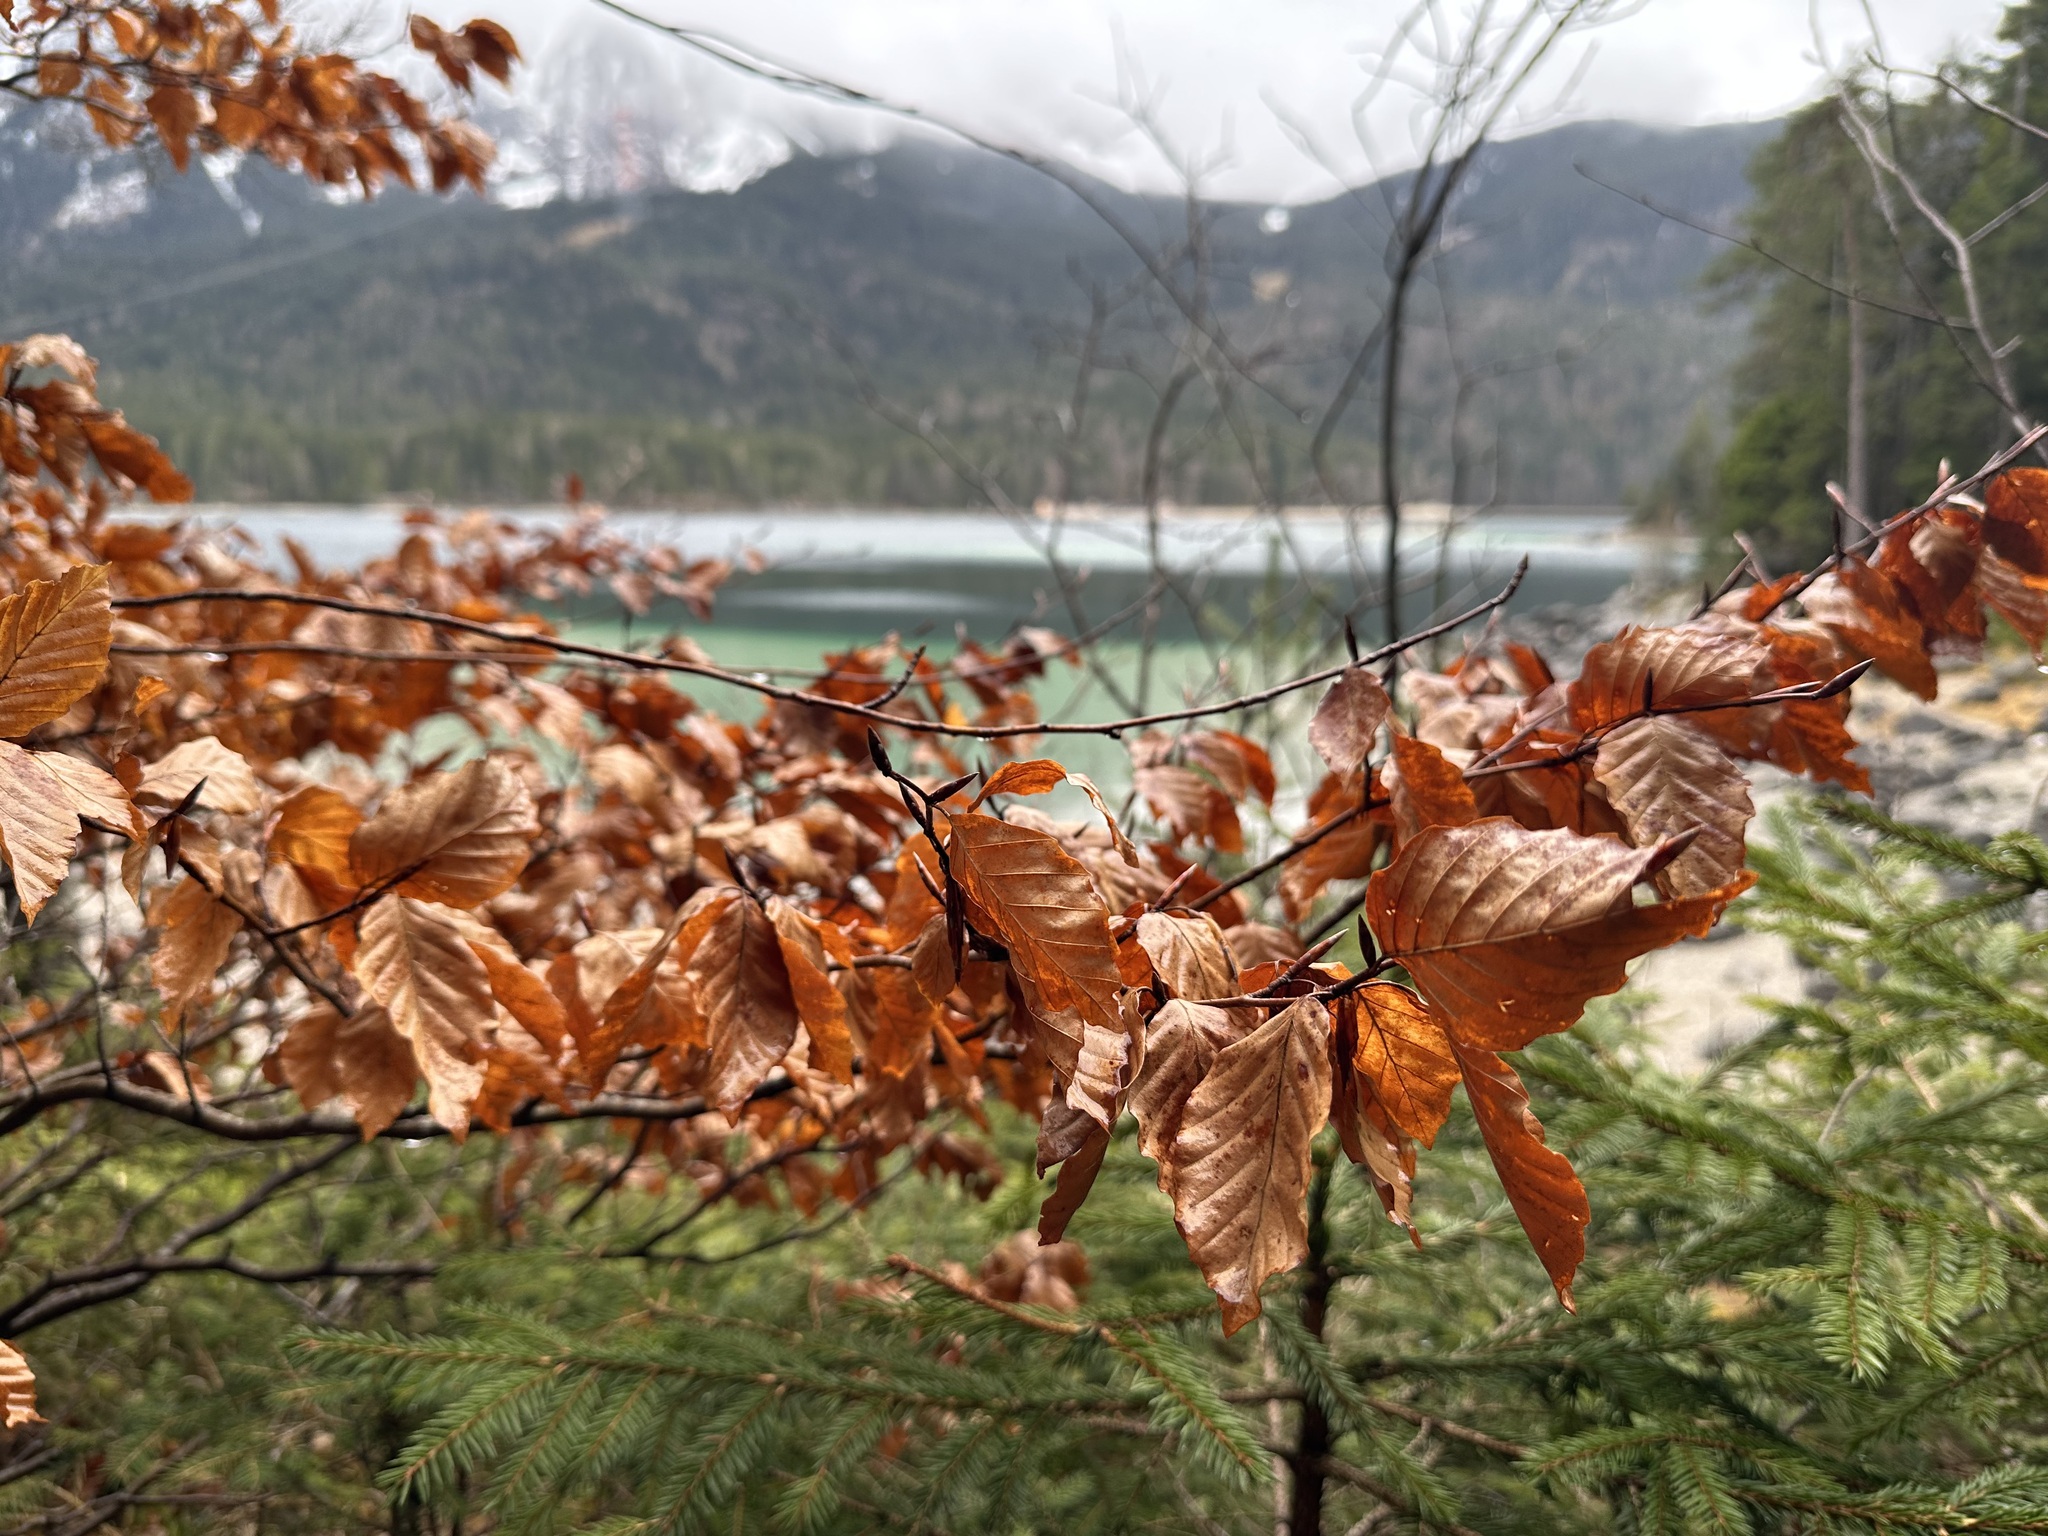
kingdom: Plantae
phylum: Tracheophyta
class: Magnoliopsida
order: Fagales
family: Fagaceae
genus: Fagus
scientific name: Fagus sylvatica
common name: Beech
